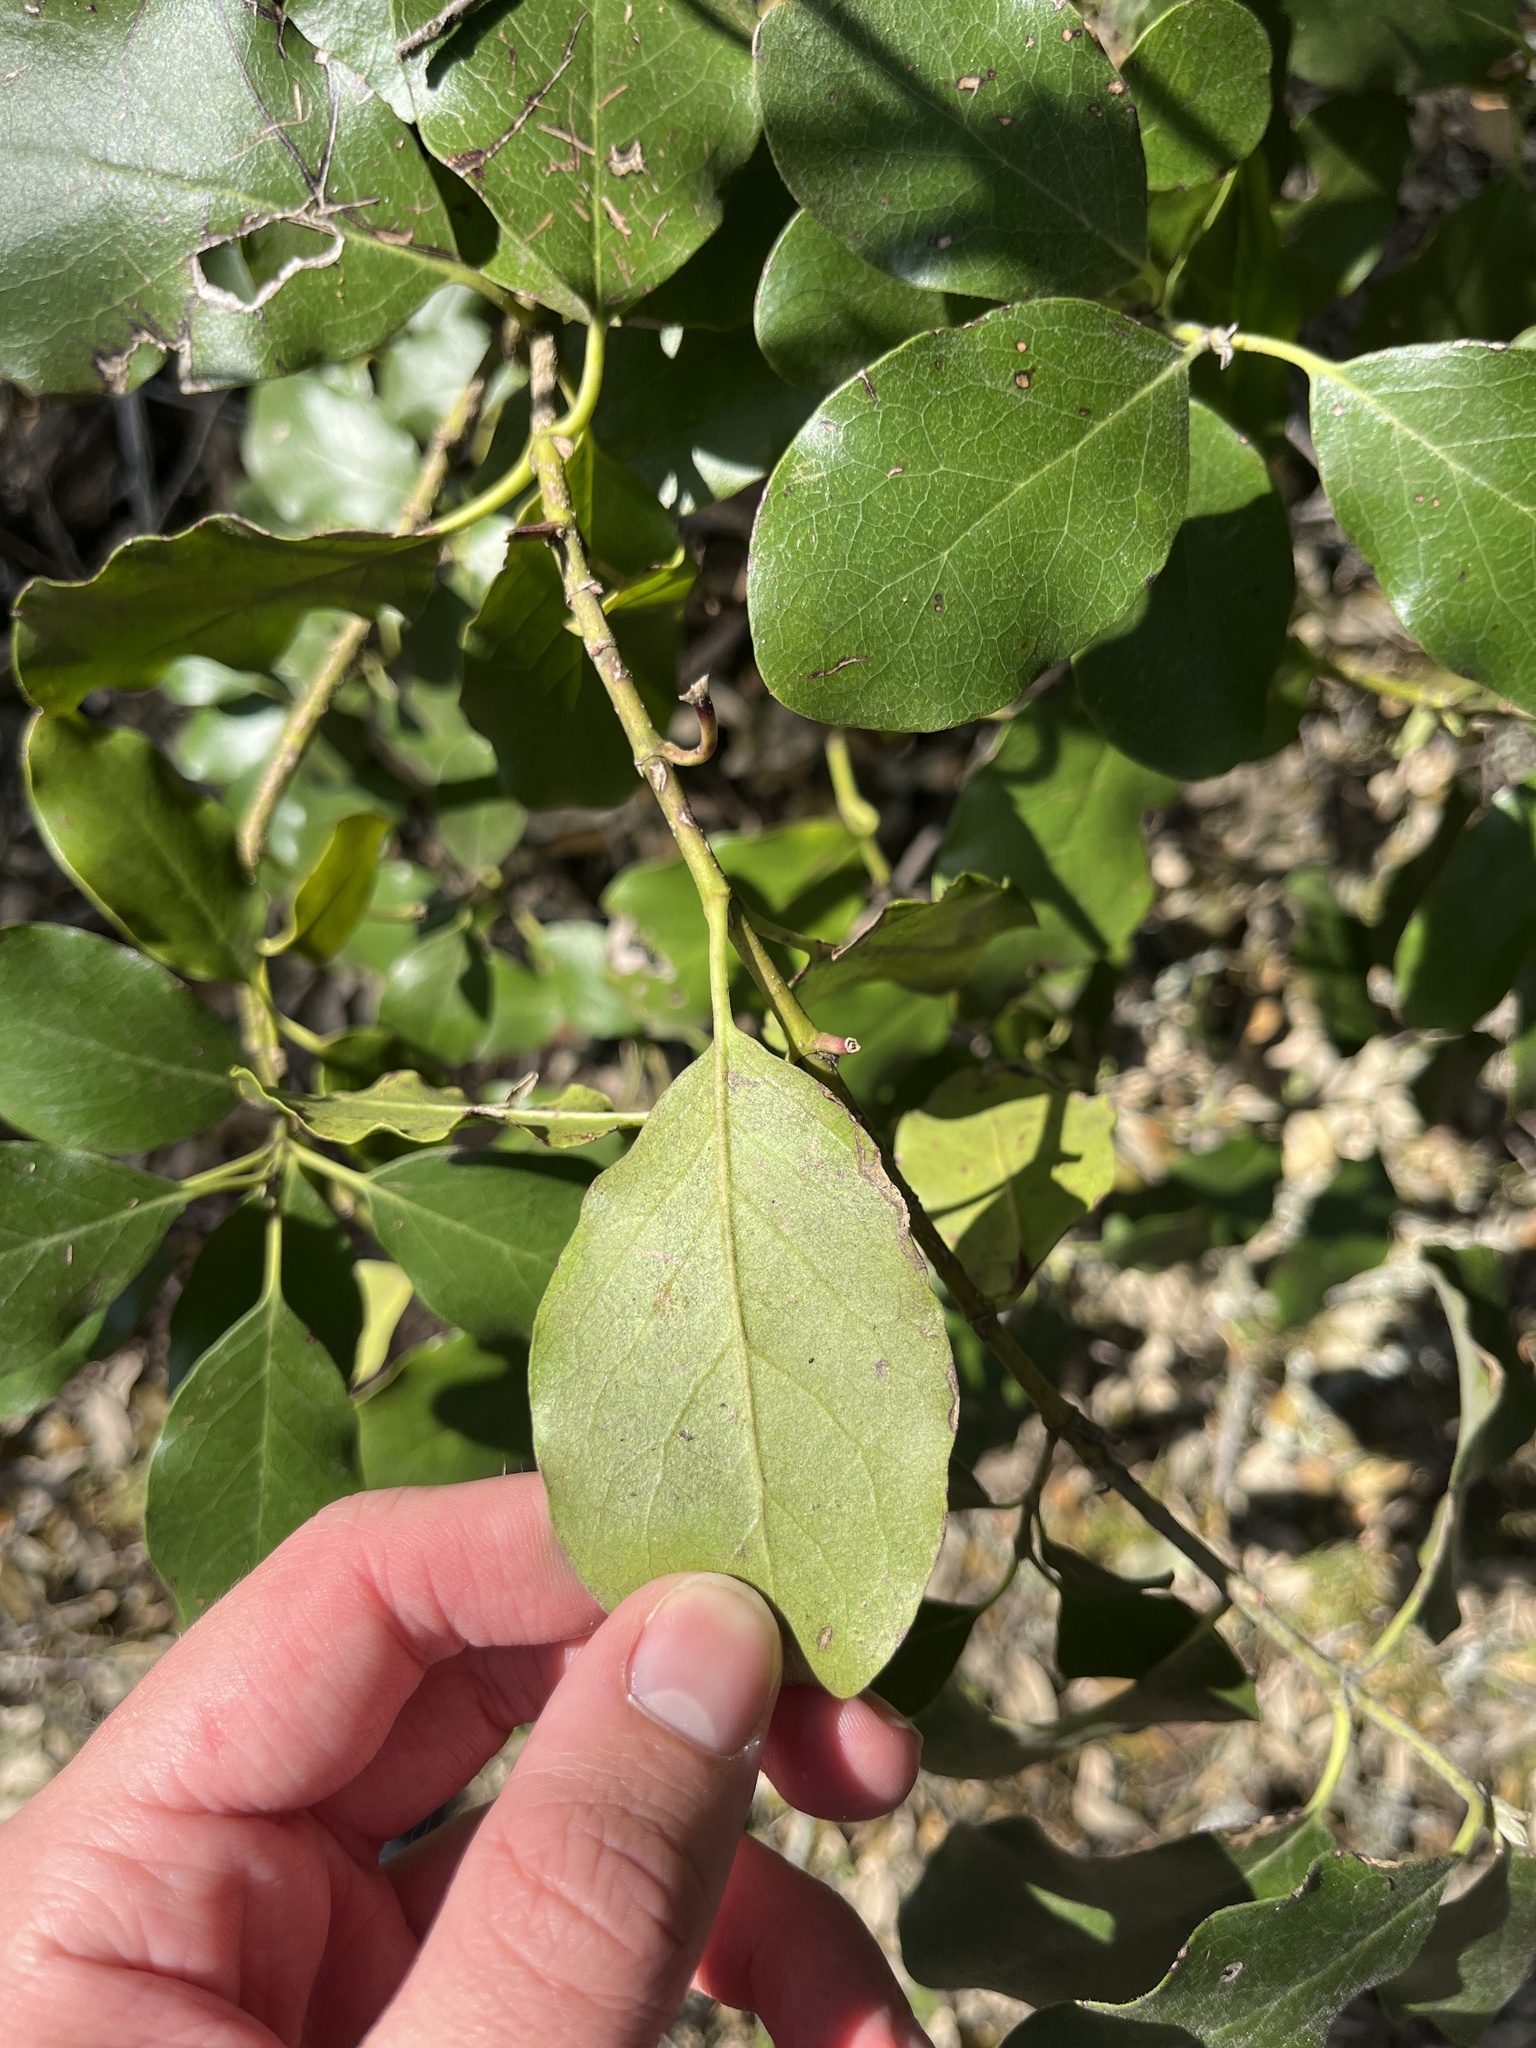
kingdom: Plantae
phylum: Tracheophyta
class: Magnoliopsida
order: Garryales
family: Garryaceae
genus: Garrya
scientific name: Garrya lindheimeri
